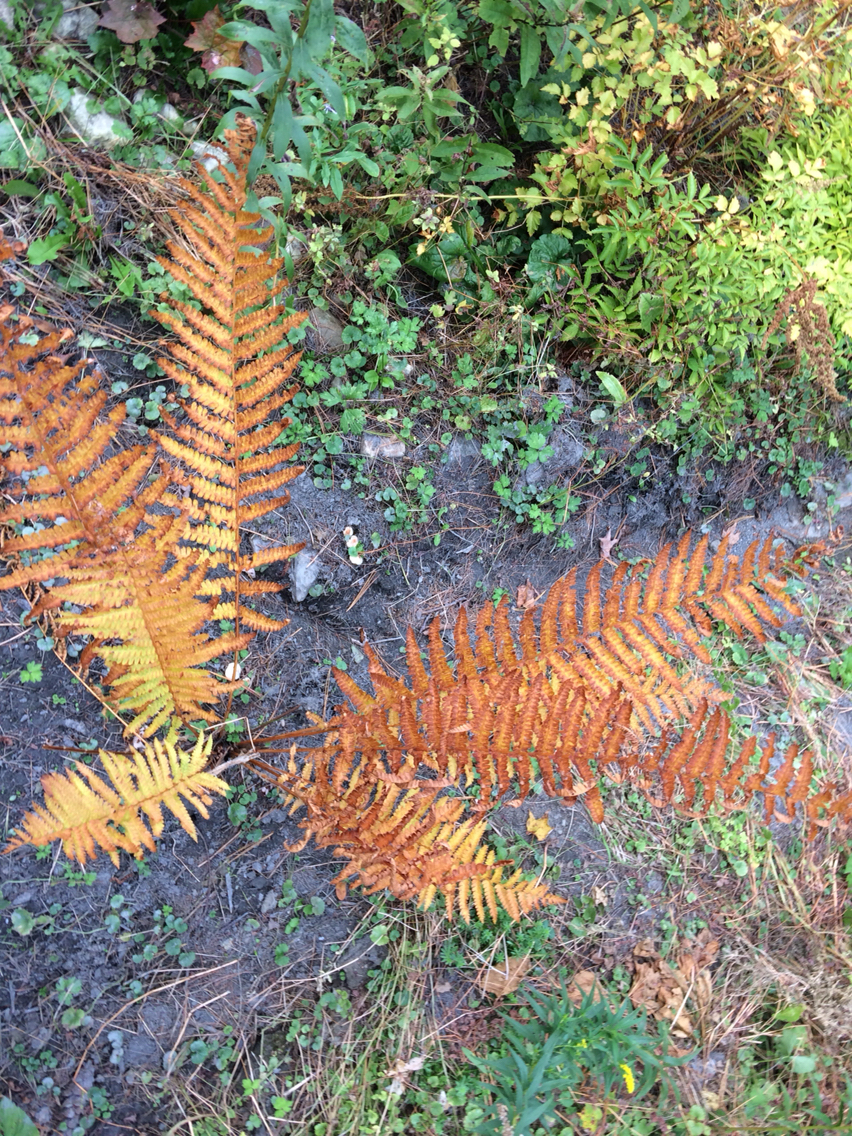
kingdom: Plantae
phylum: Tracheophyta
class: Polypodiopsida
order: Osmundales
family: Osmundaceae
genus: Osmundastrum
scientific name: Osmundastrum cinnamomeum
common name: Cinnamon fern
